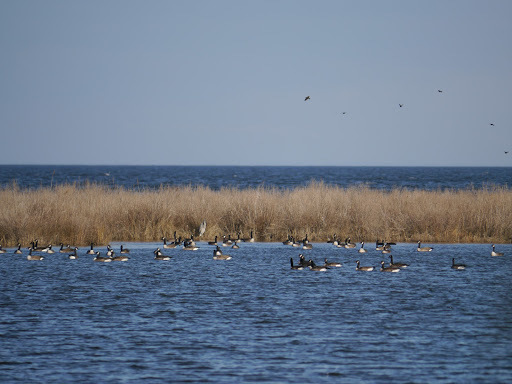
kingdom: Animalia
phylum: Chordata
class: Aves
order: Anseriformes
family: Anatidae
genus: Branta
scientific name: Branta canadensis
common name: Canada goose
